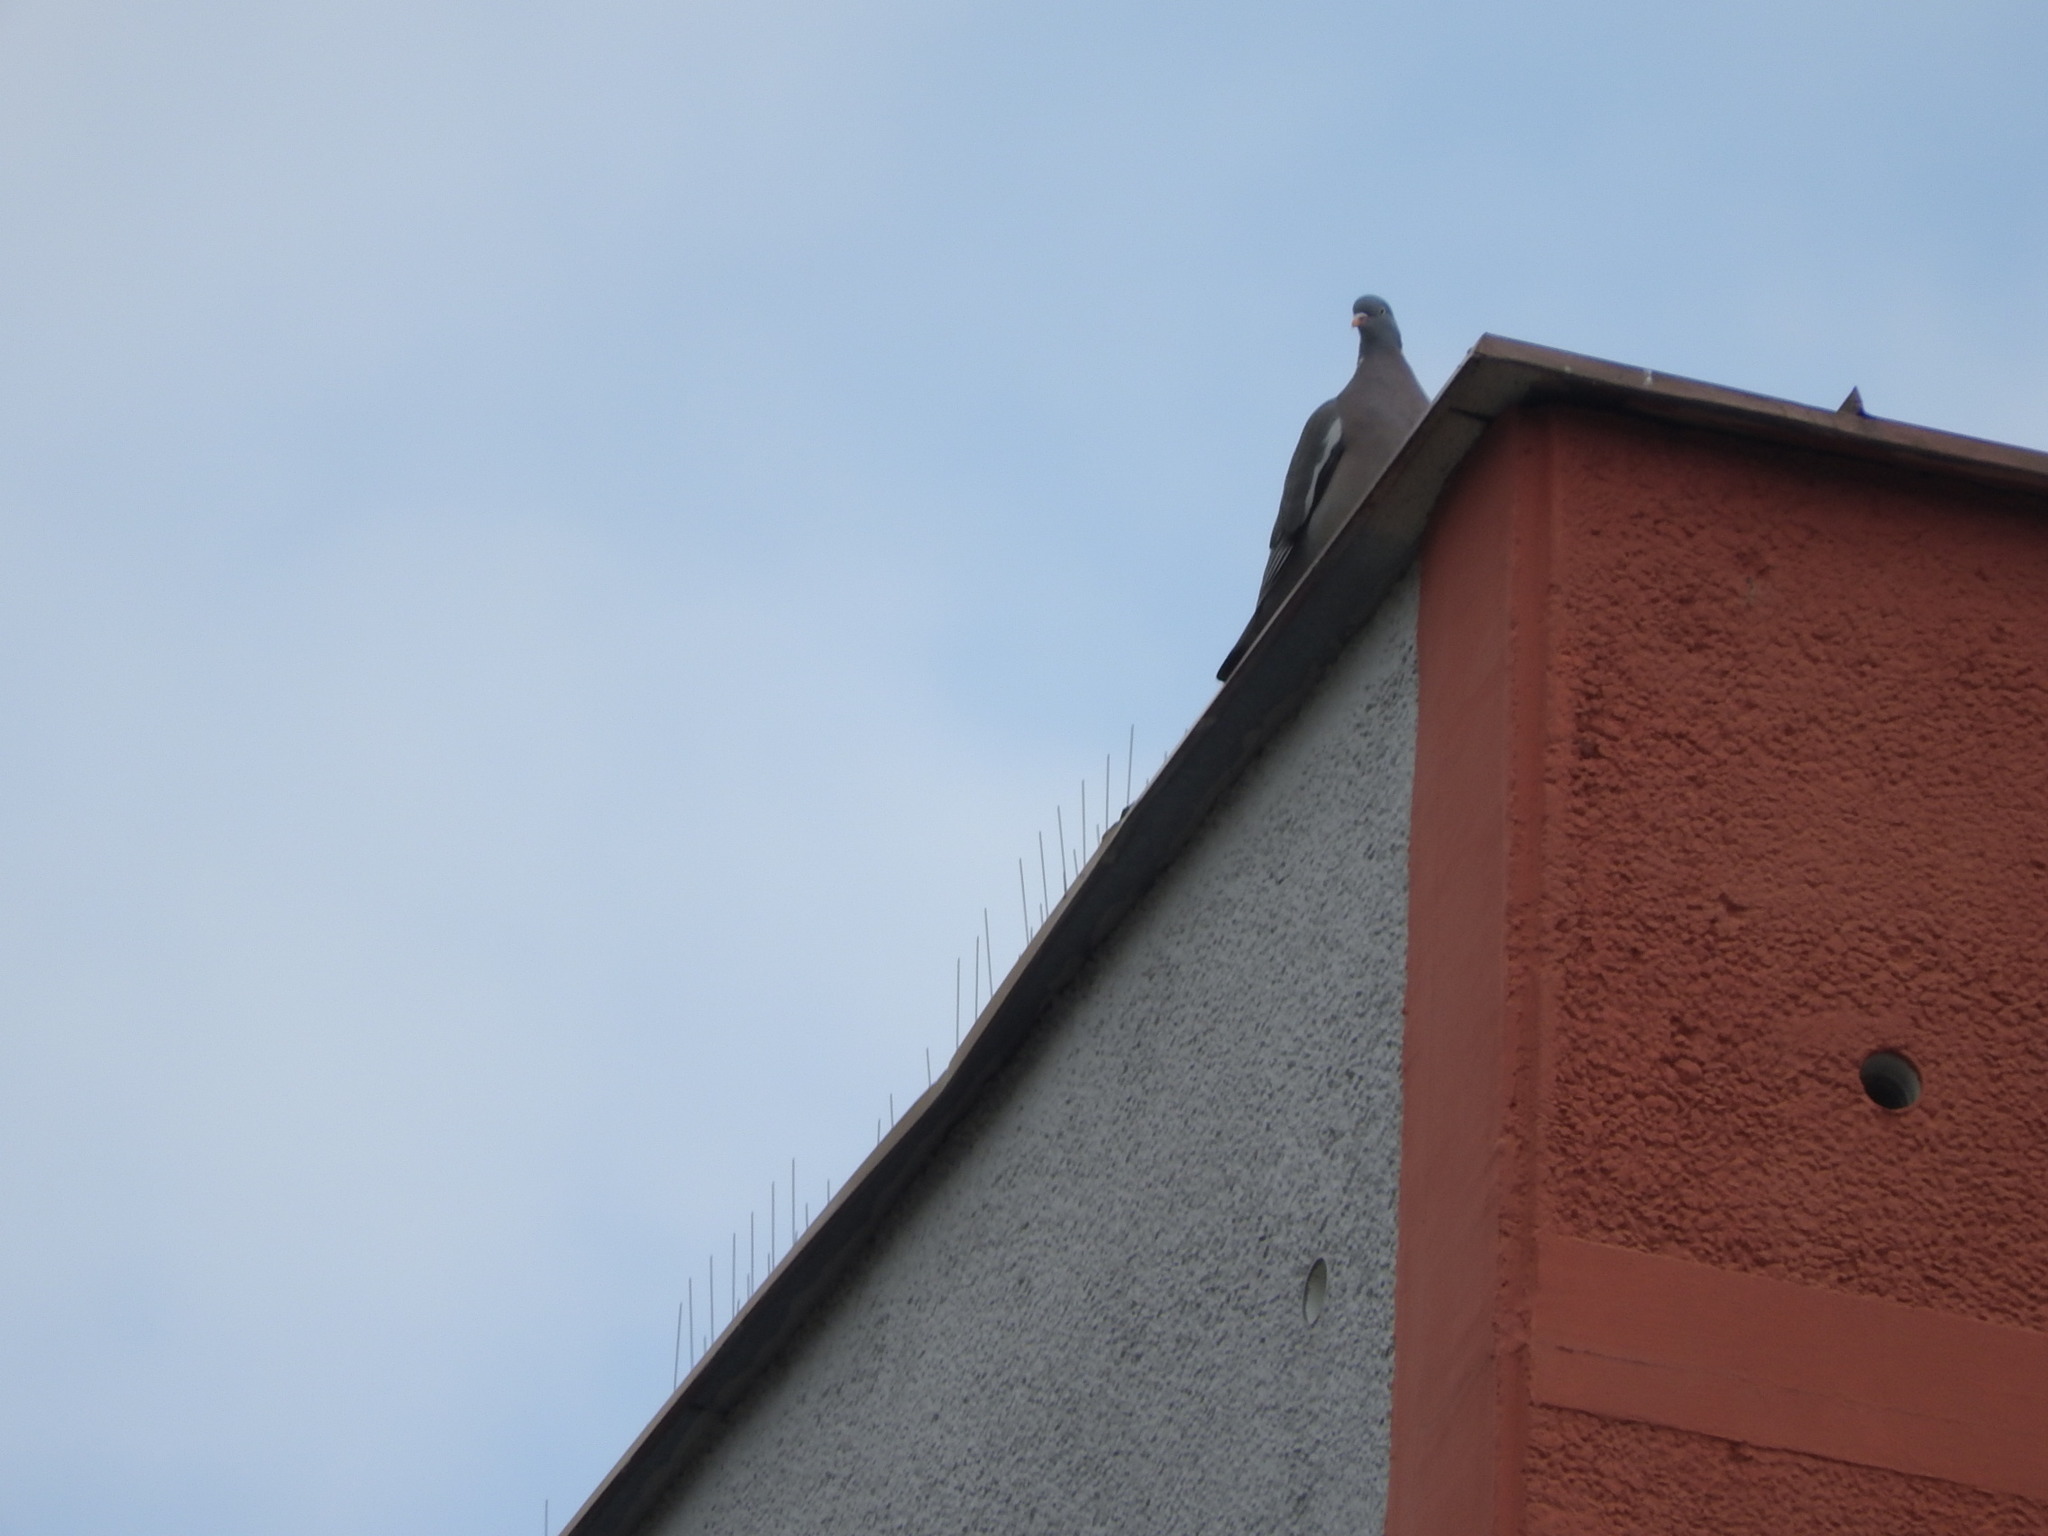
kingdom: Animalia
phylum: Chordata
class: Aves
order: Columbiformes
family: Columbidae
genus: Columba
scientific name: Columba palumbus
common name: Common wood pigeon
